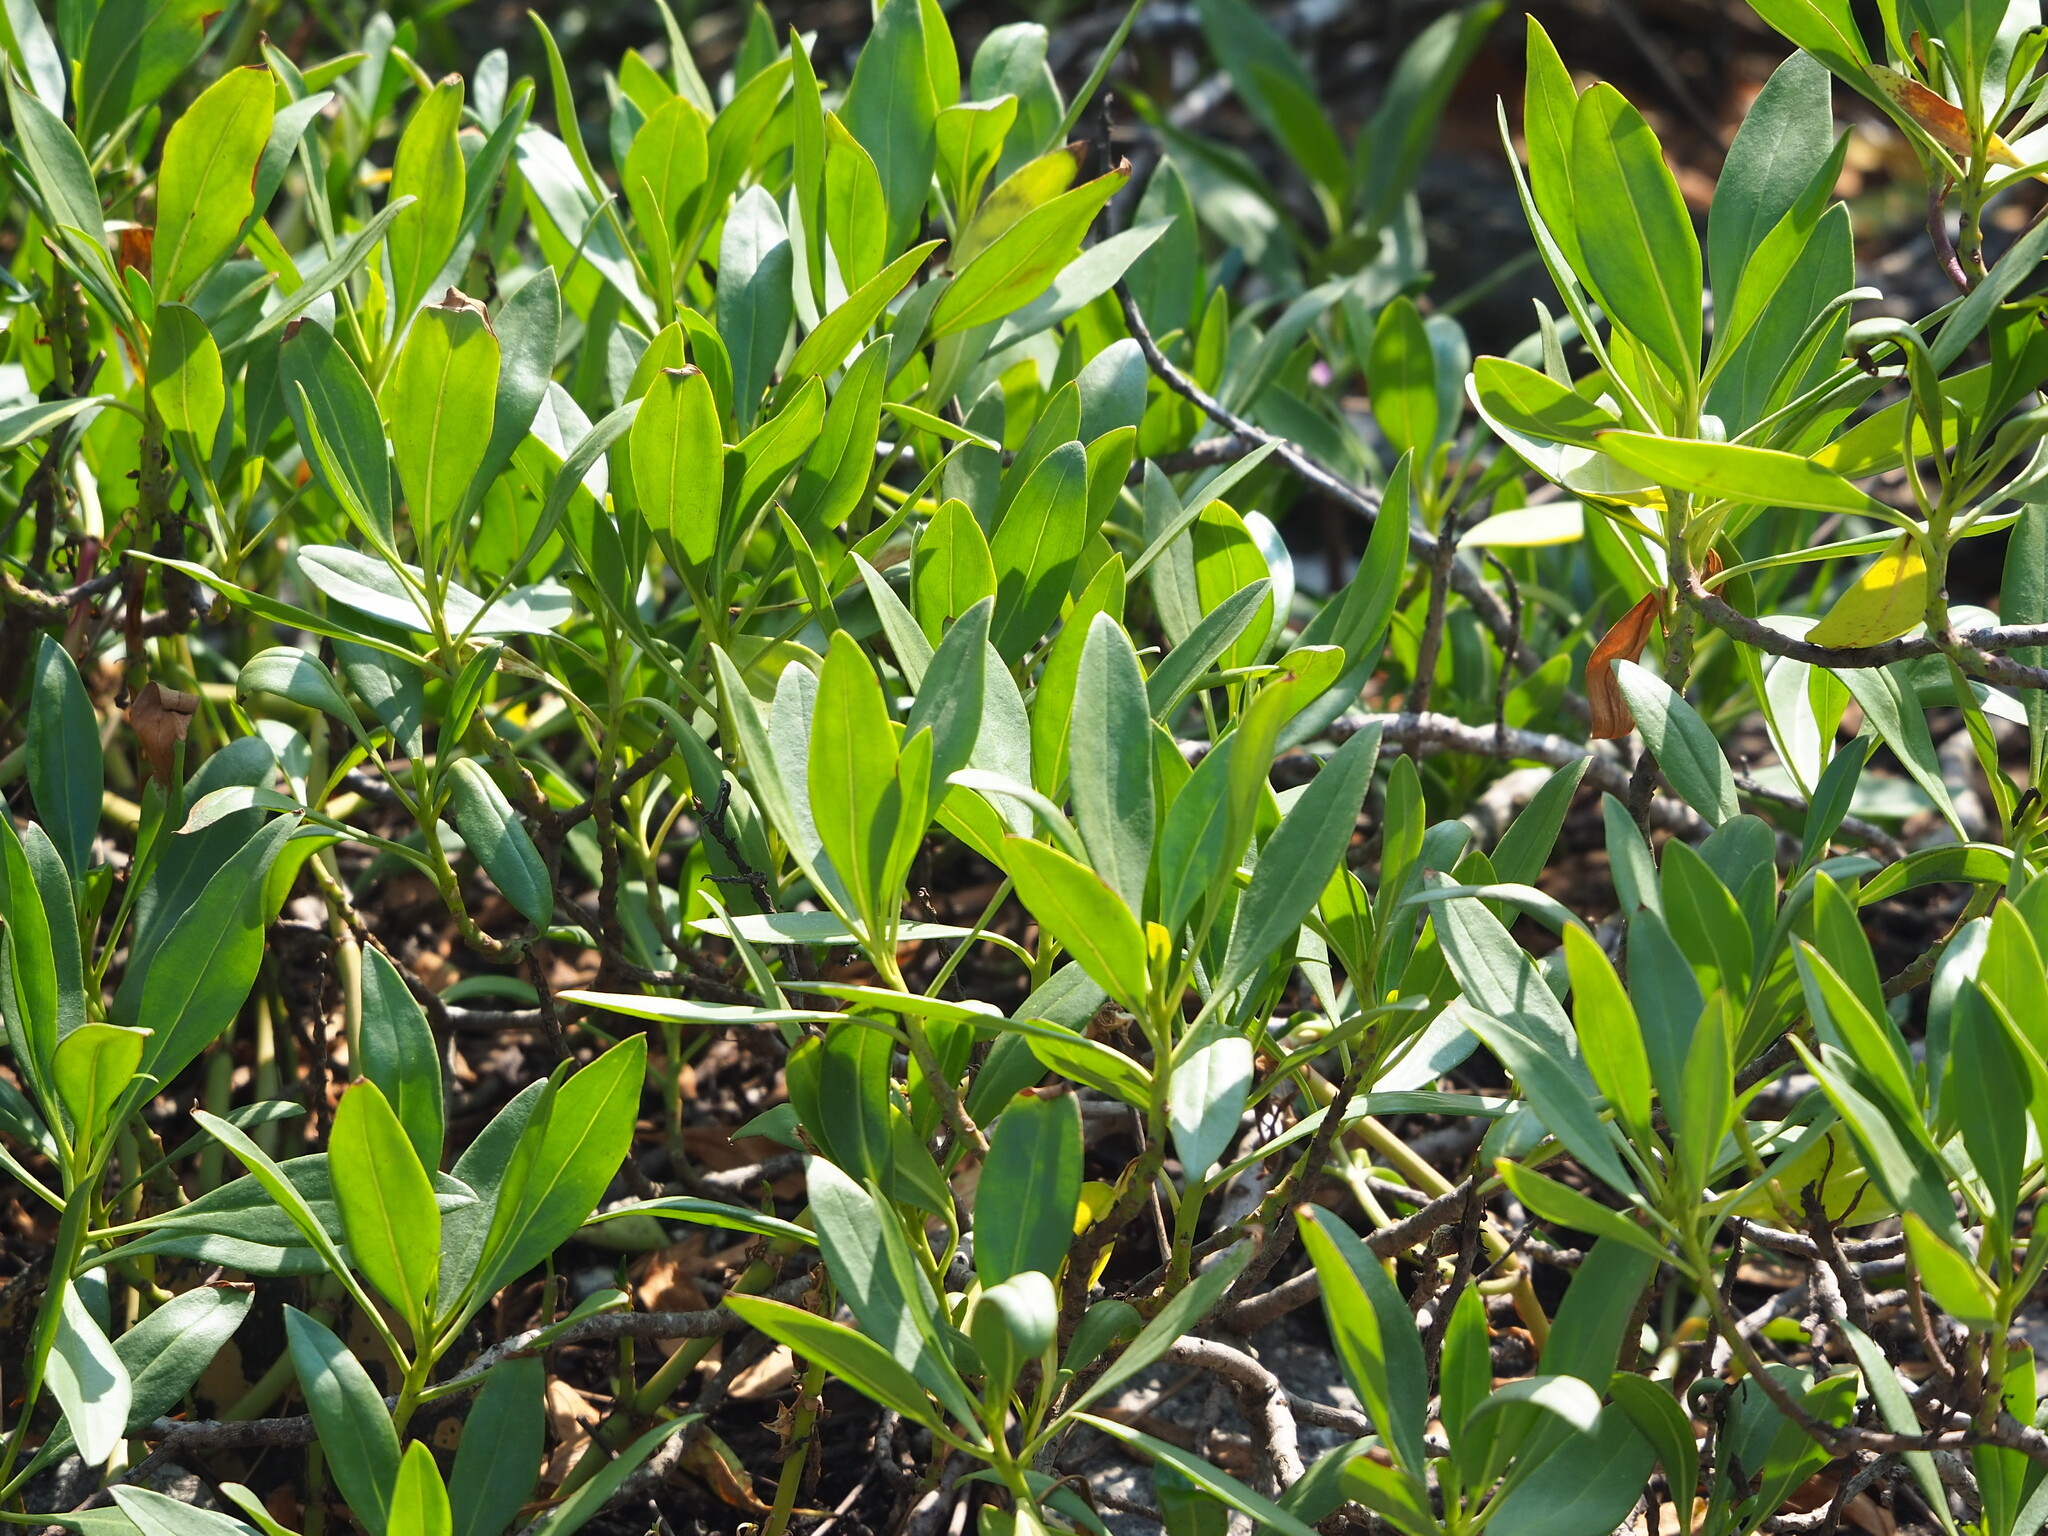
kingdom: Plantae
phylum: Tracheophyta
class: Magnoliopsida
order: Lamiales
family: Scrophulariaceae
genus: Myoporum
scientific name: Myoporum bontioides
